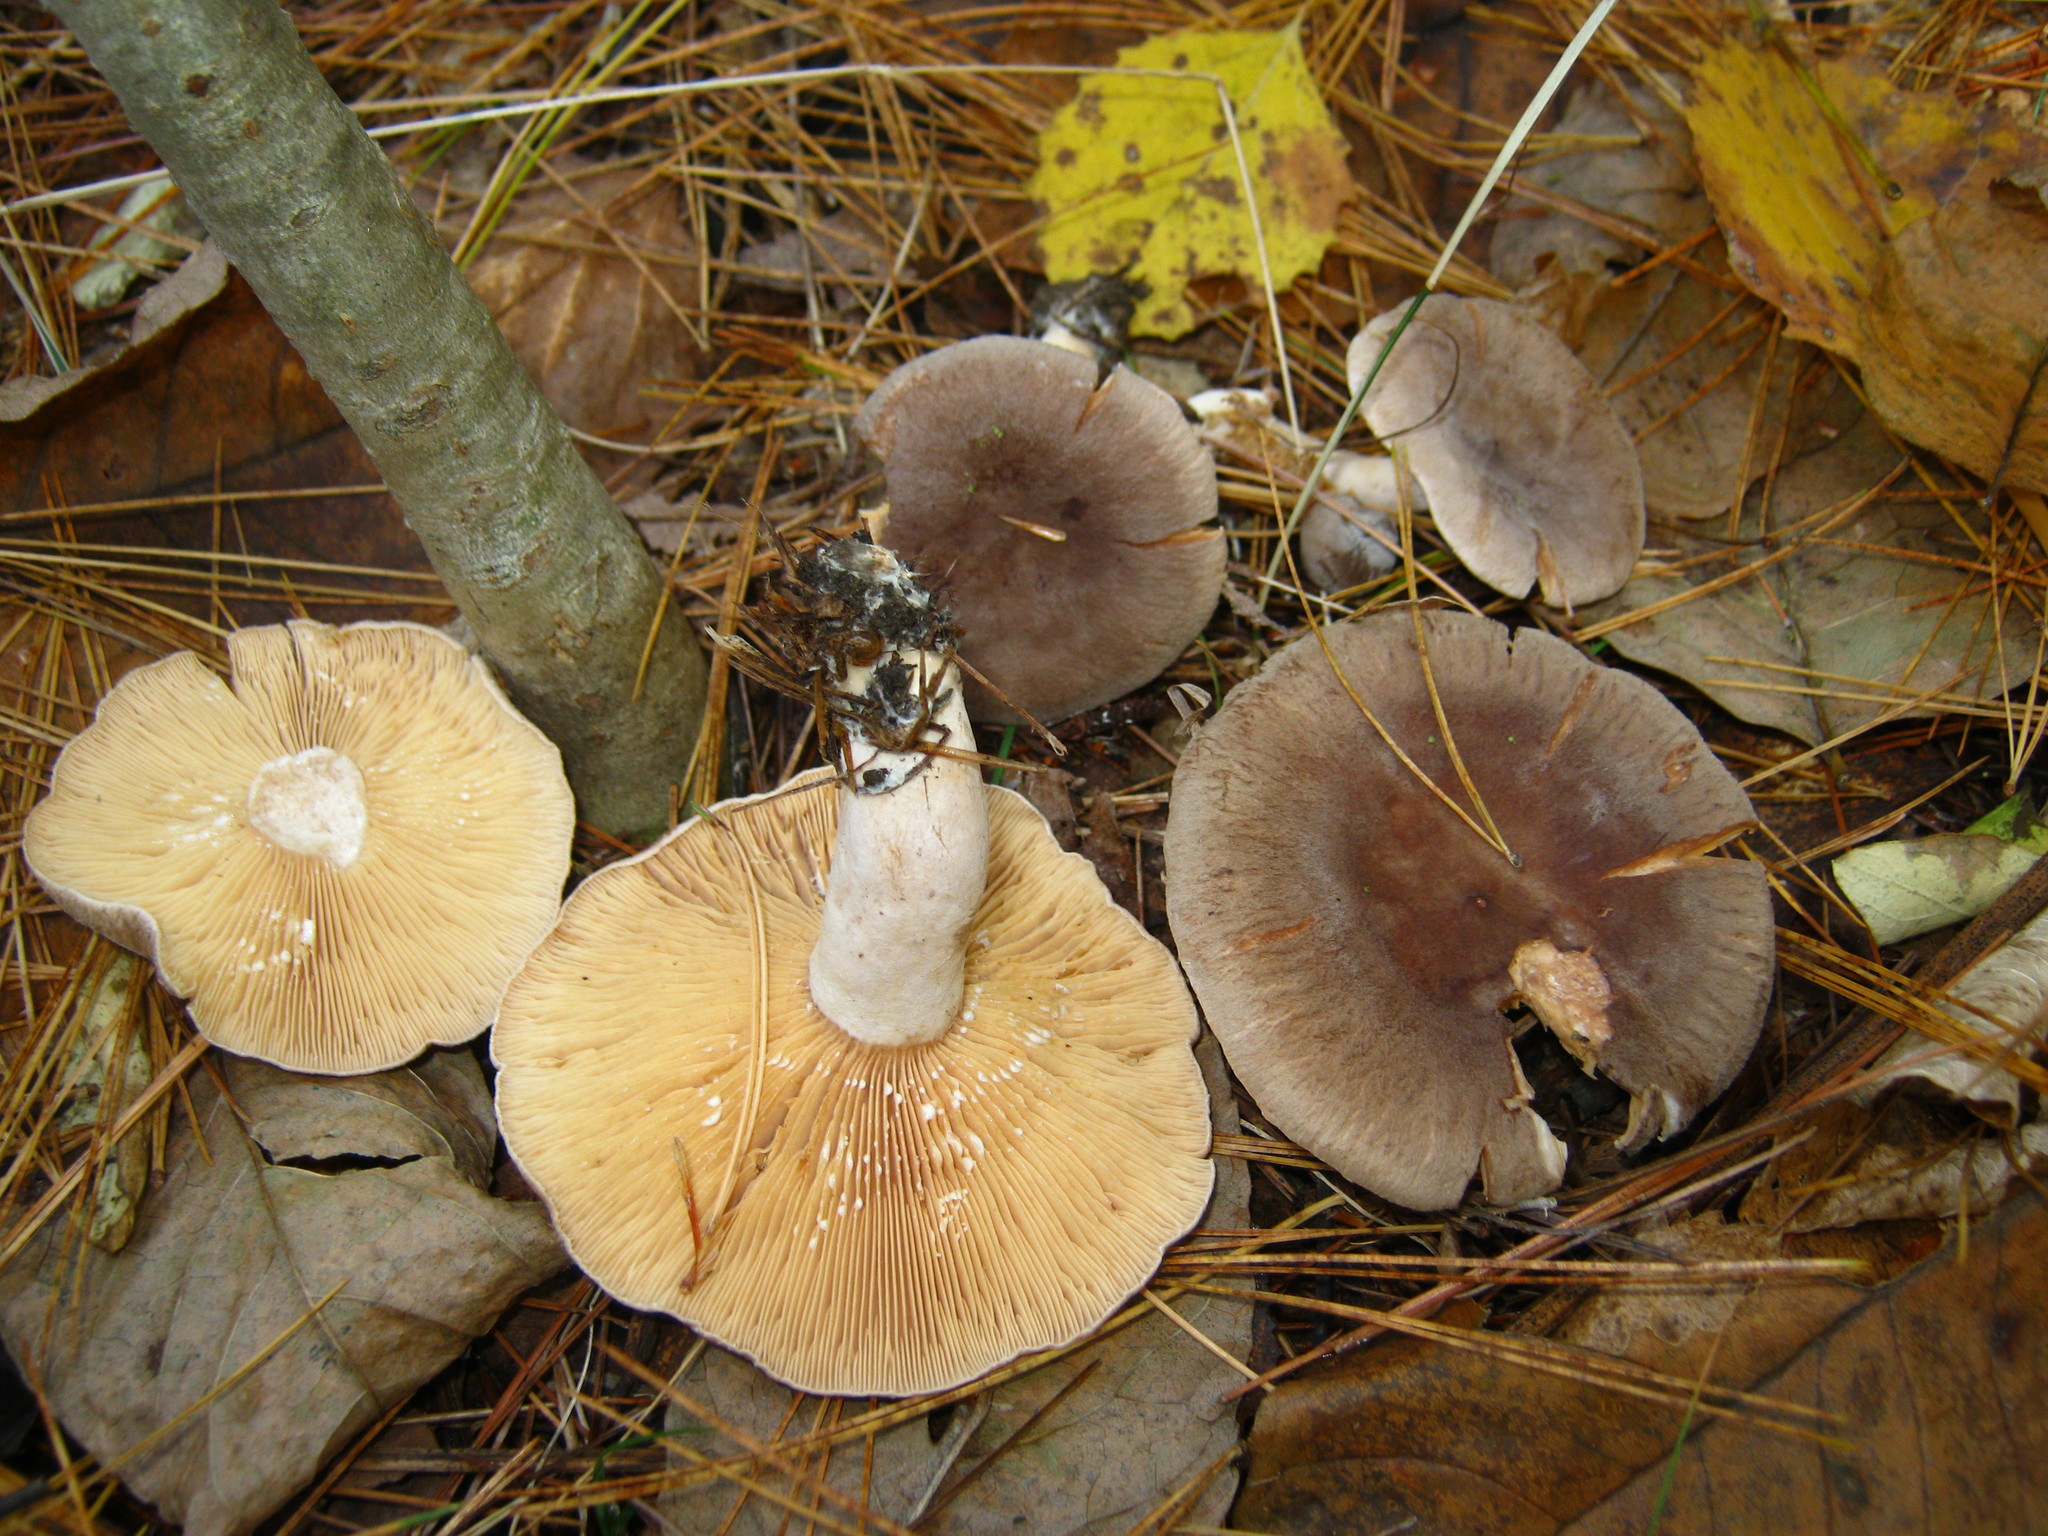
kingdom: Fungi
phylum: Basidiomycota
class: Agaricomycetes
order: Russulales
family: Russulaceae
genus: Lactarius
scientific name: Lactarius mammosus
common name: Pap milkcap
